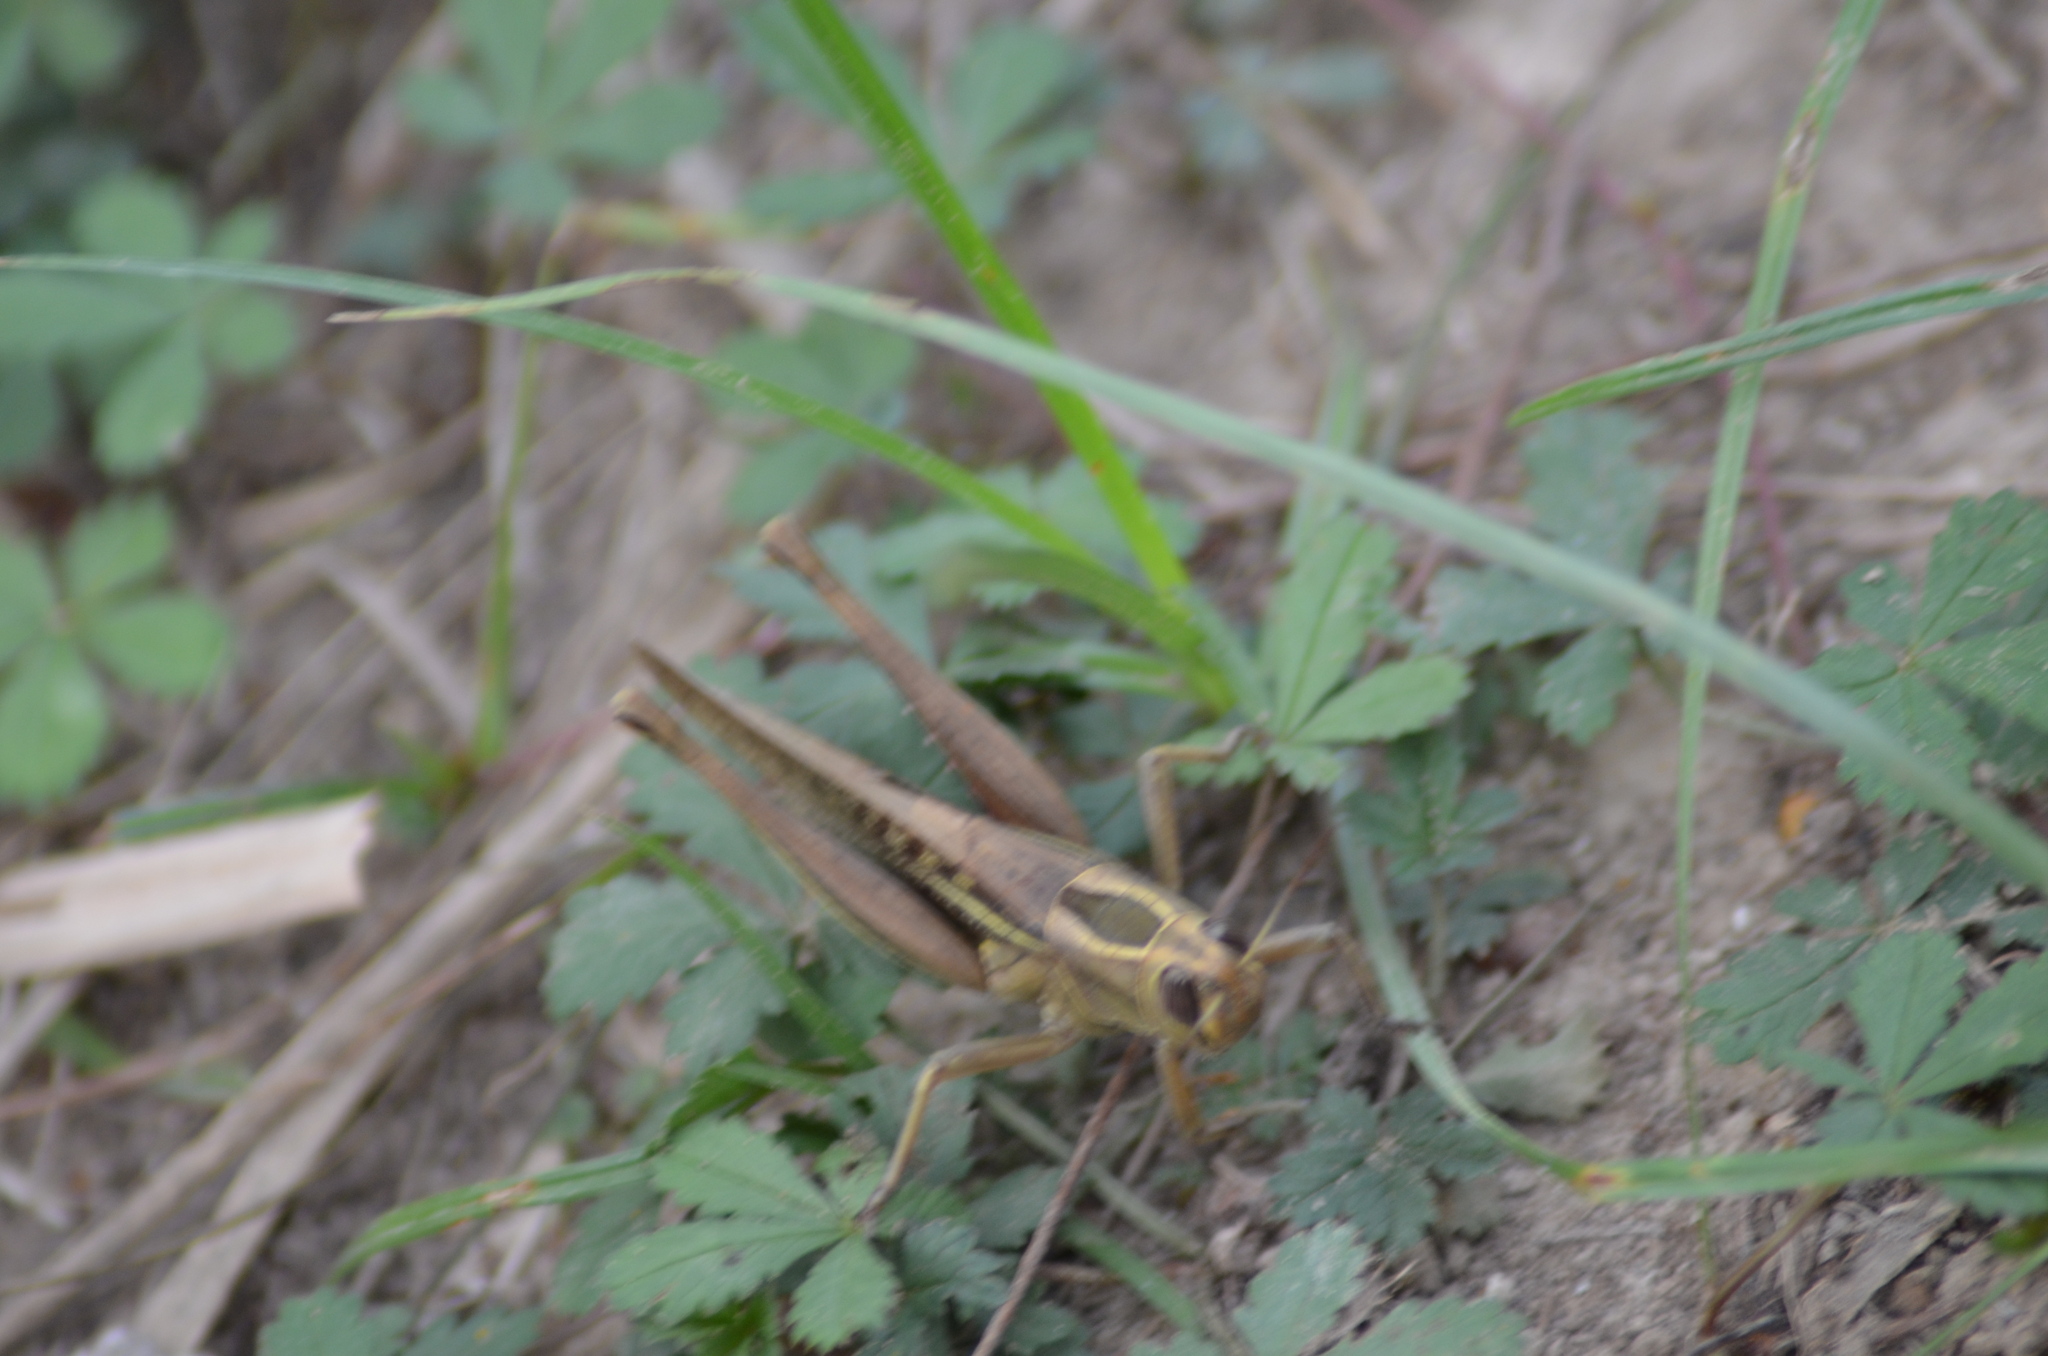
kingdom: Animalia
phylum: Arthropoda
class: Insecta
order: Orthoptera
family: Acrididae
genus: Eyprepocnemis
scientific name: Eyprepocnemis plorans
